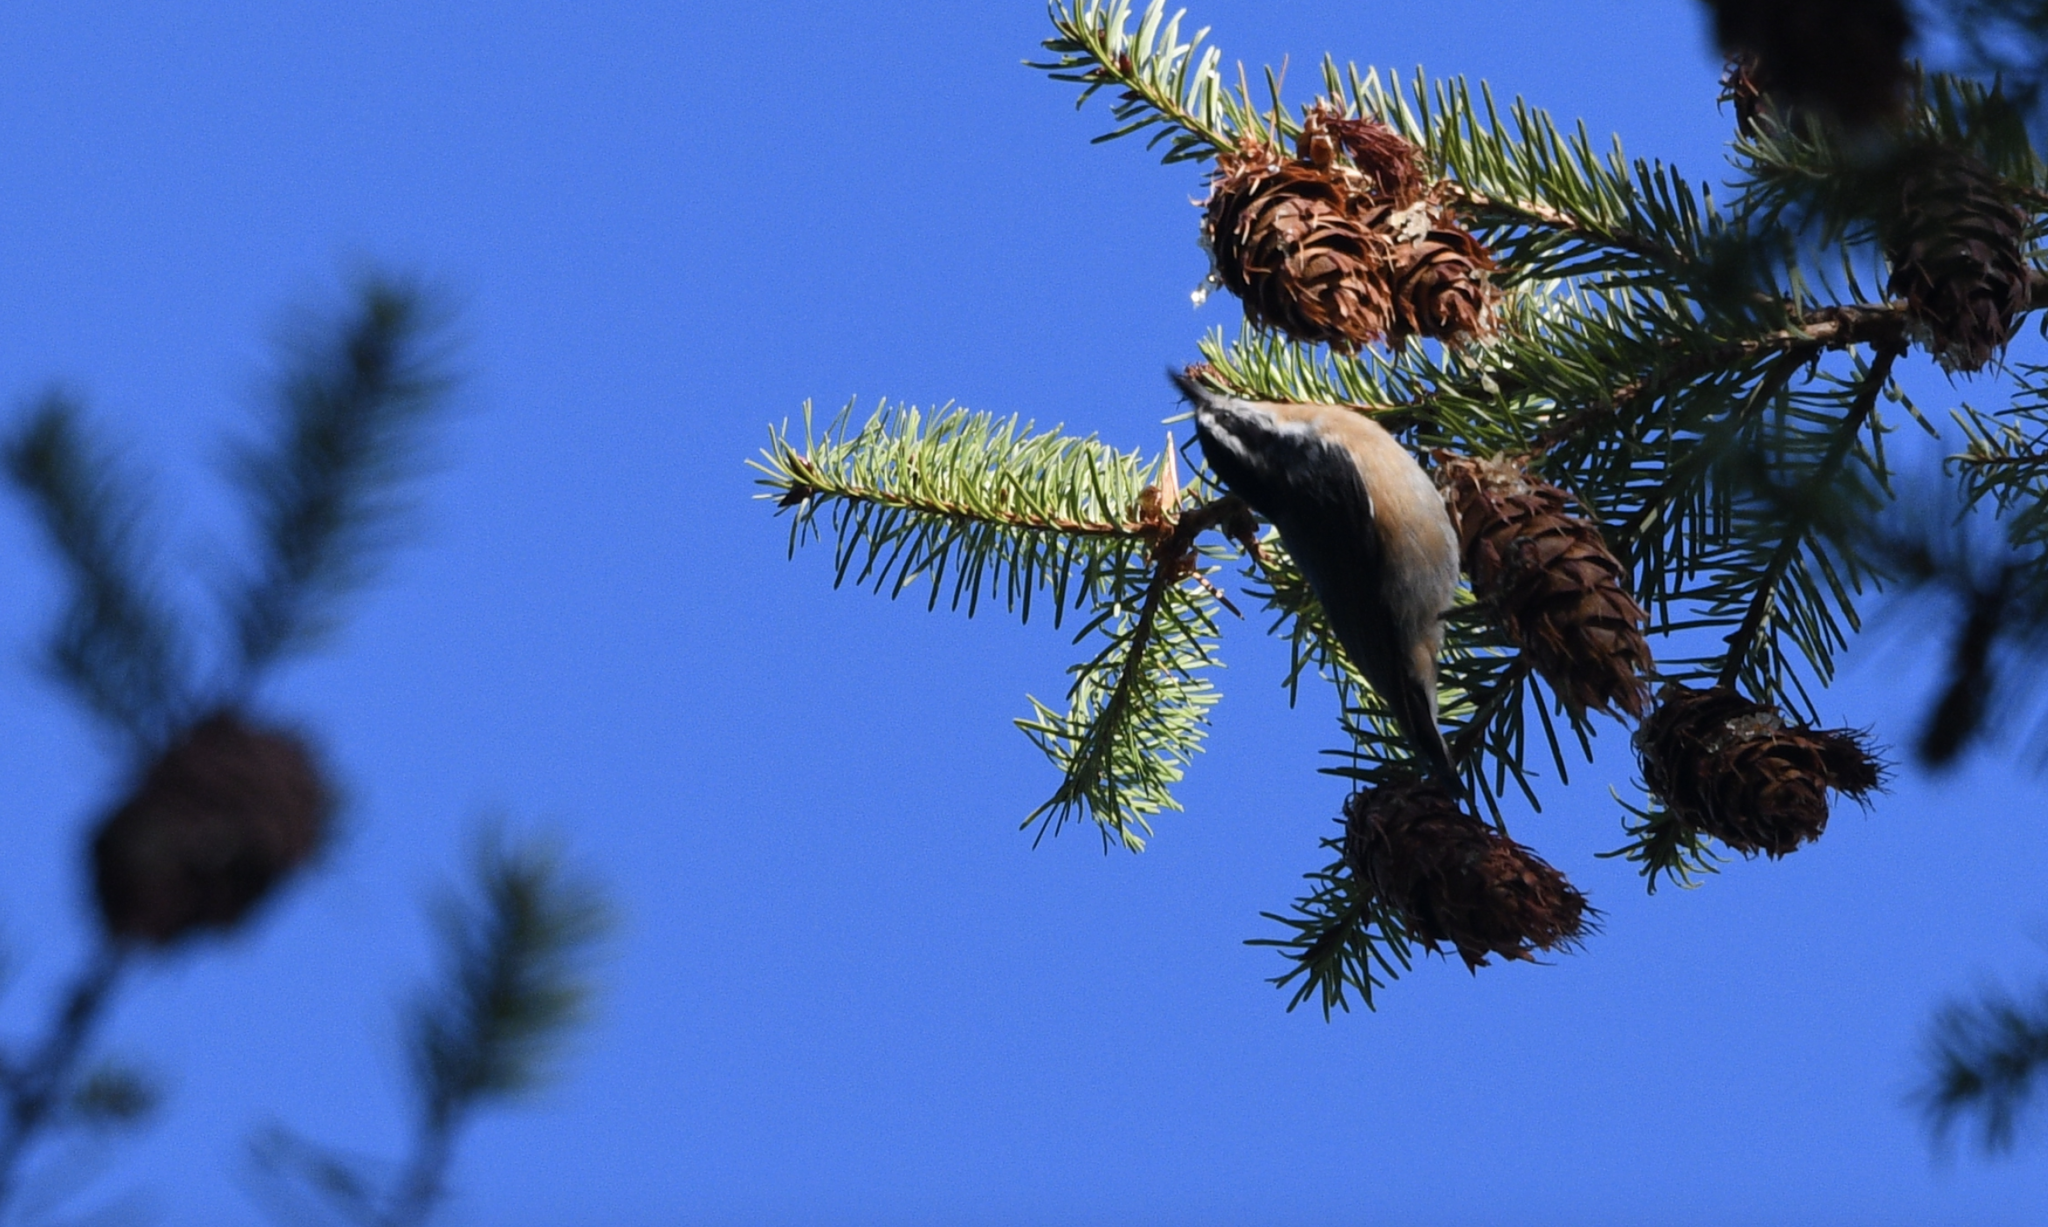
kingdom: Animalia
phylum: Chordata
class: Aves
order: Passeriformes
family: Sittidae
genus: Sitta
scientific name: Sitta canadensis
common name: Red-breasted nuthatch
